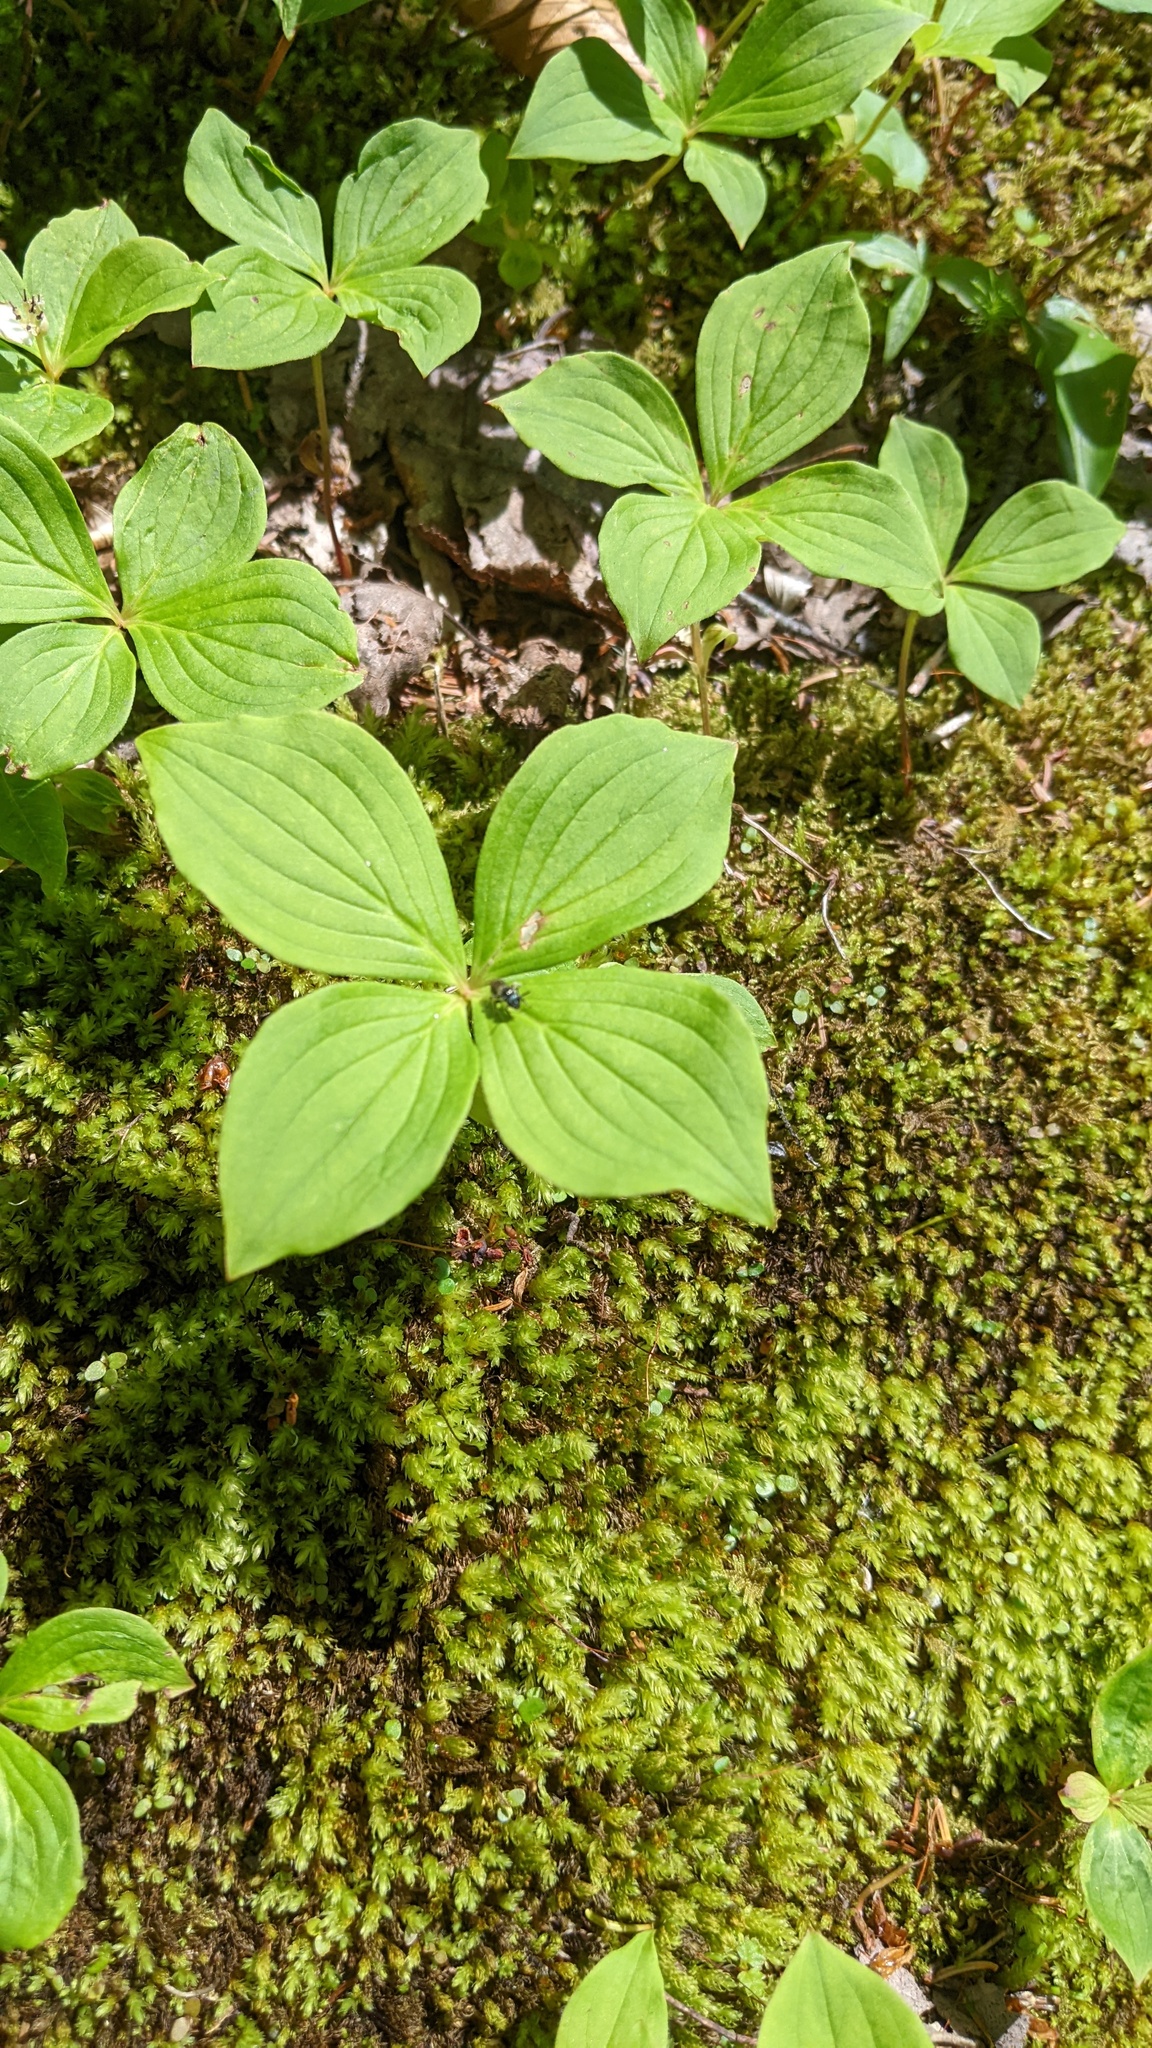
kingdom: Plantae
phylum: Tracheophyta
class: Magnoliopsida
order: Cornales
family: Cornaceae
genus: Cornus
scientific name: Cornus canadensis
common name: Creeping dogwood
